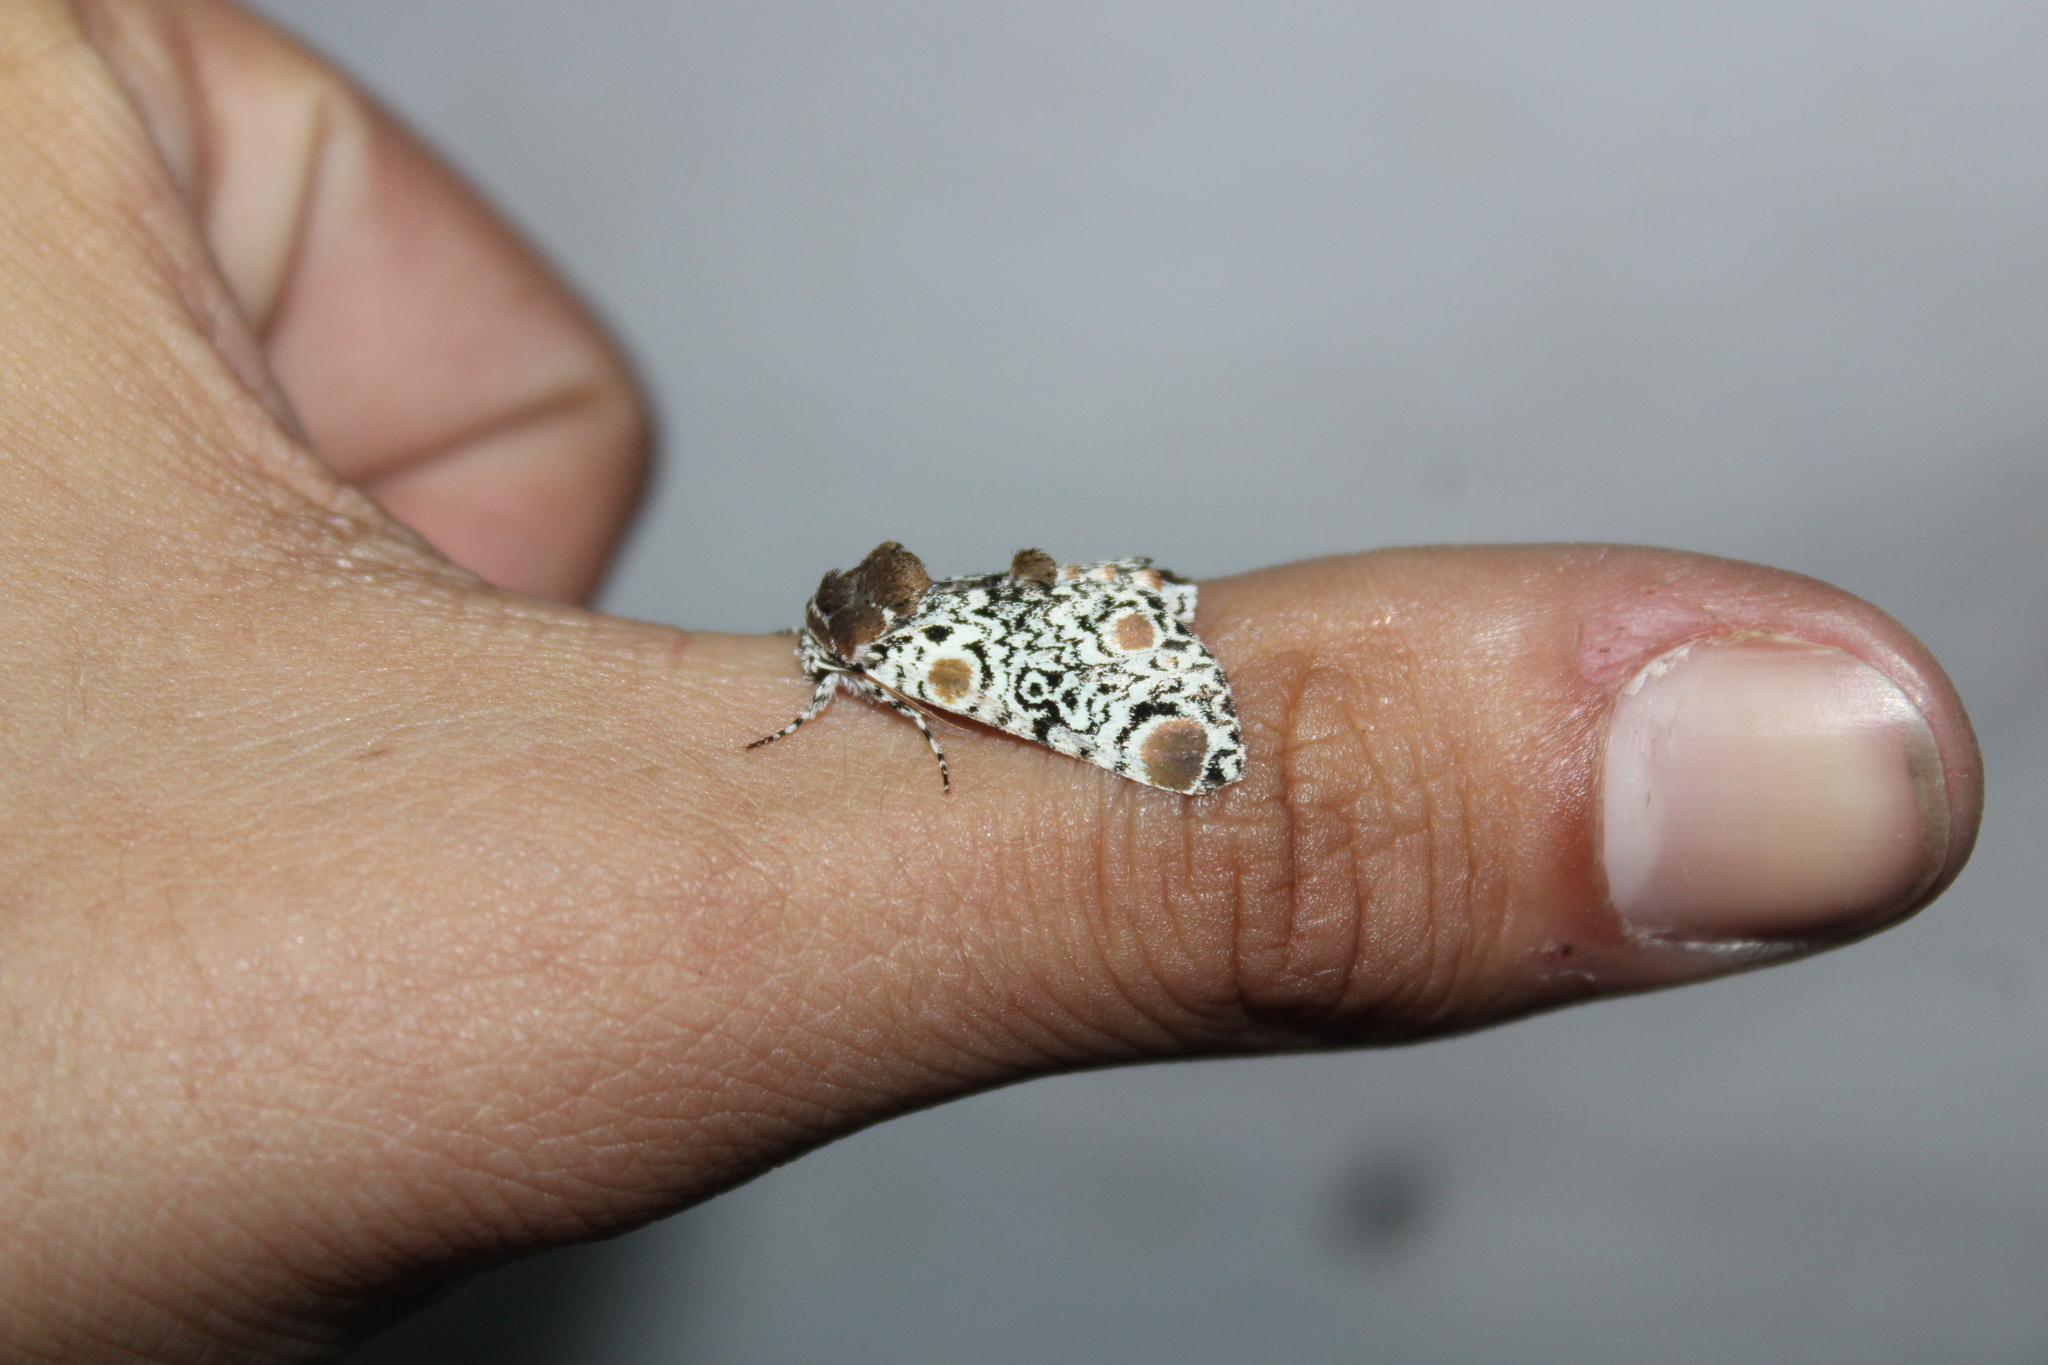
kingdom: Animalia
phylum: Arthropoda
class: Insecta
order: Lepidoptera
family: Noctuidae
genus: Harrisimemna
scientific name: Harrisimemna trisignata
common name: Harris threespot
